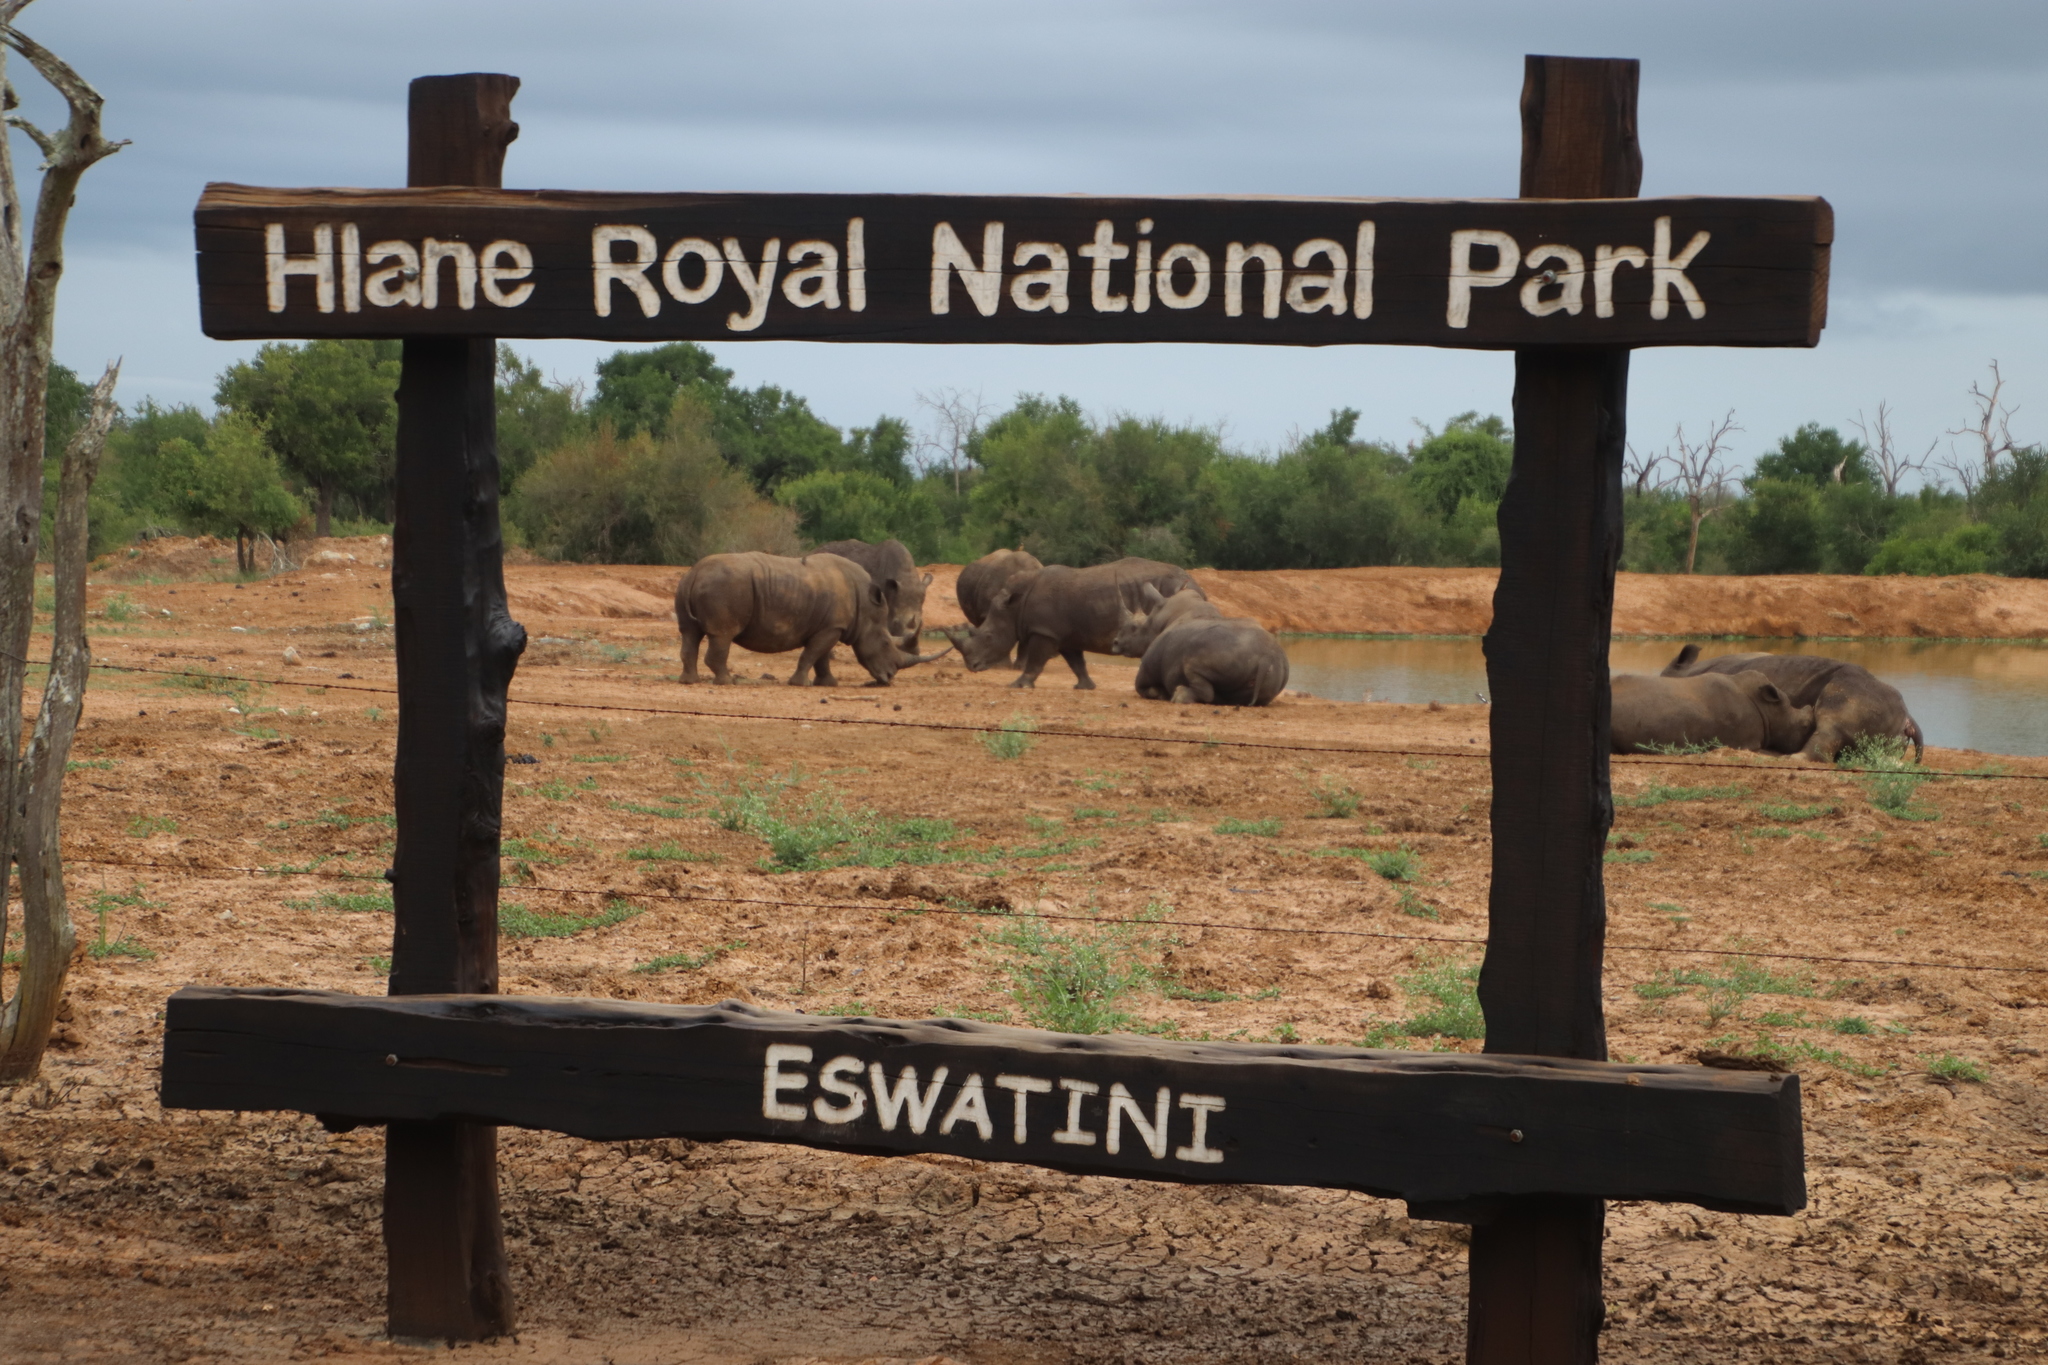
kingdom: Animalia
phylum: Chordata
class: Mammalia
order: Perissodactyla
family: Rhinocerotidae
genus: Ceratotherium
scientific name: Ceratotherium simum
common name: White rhinoceros
